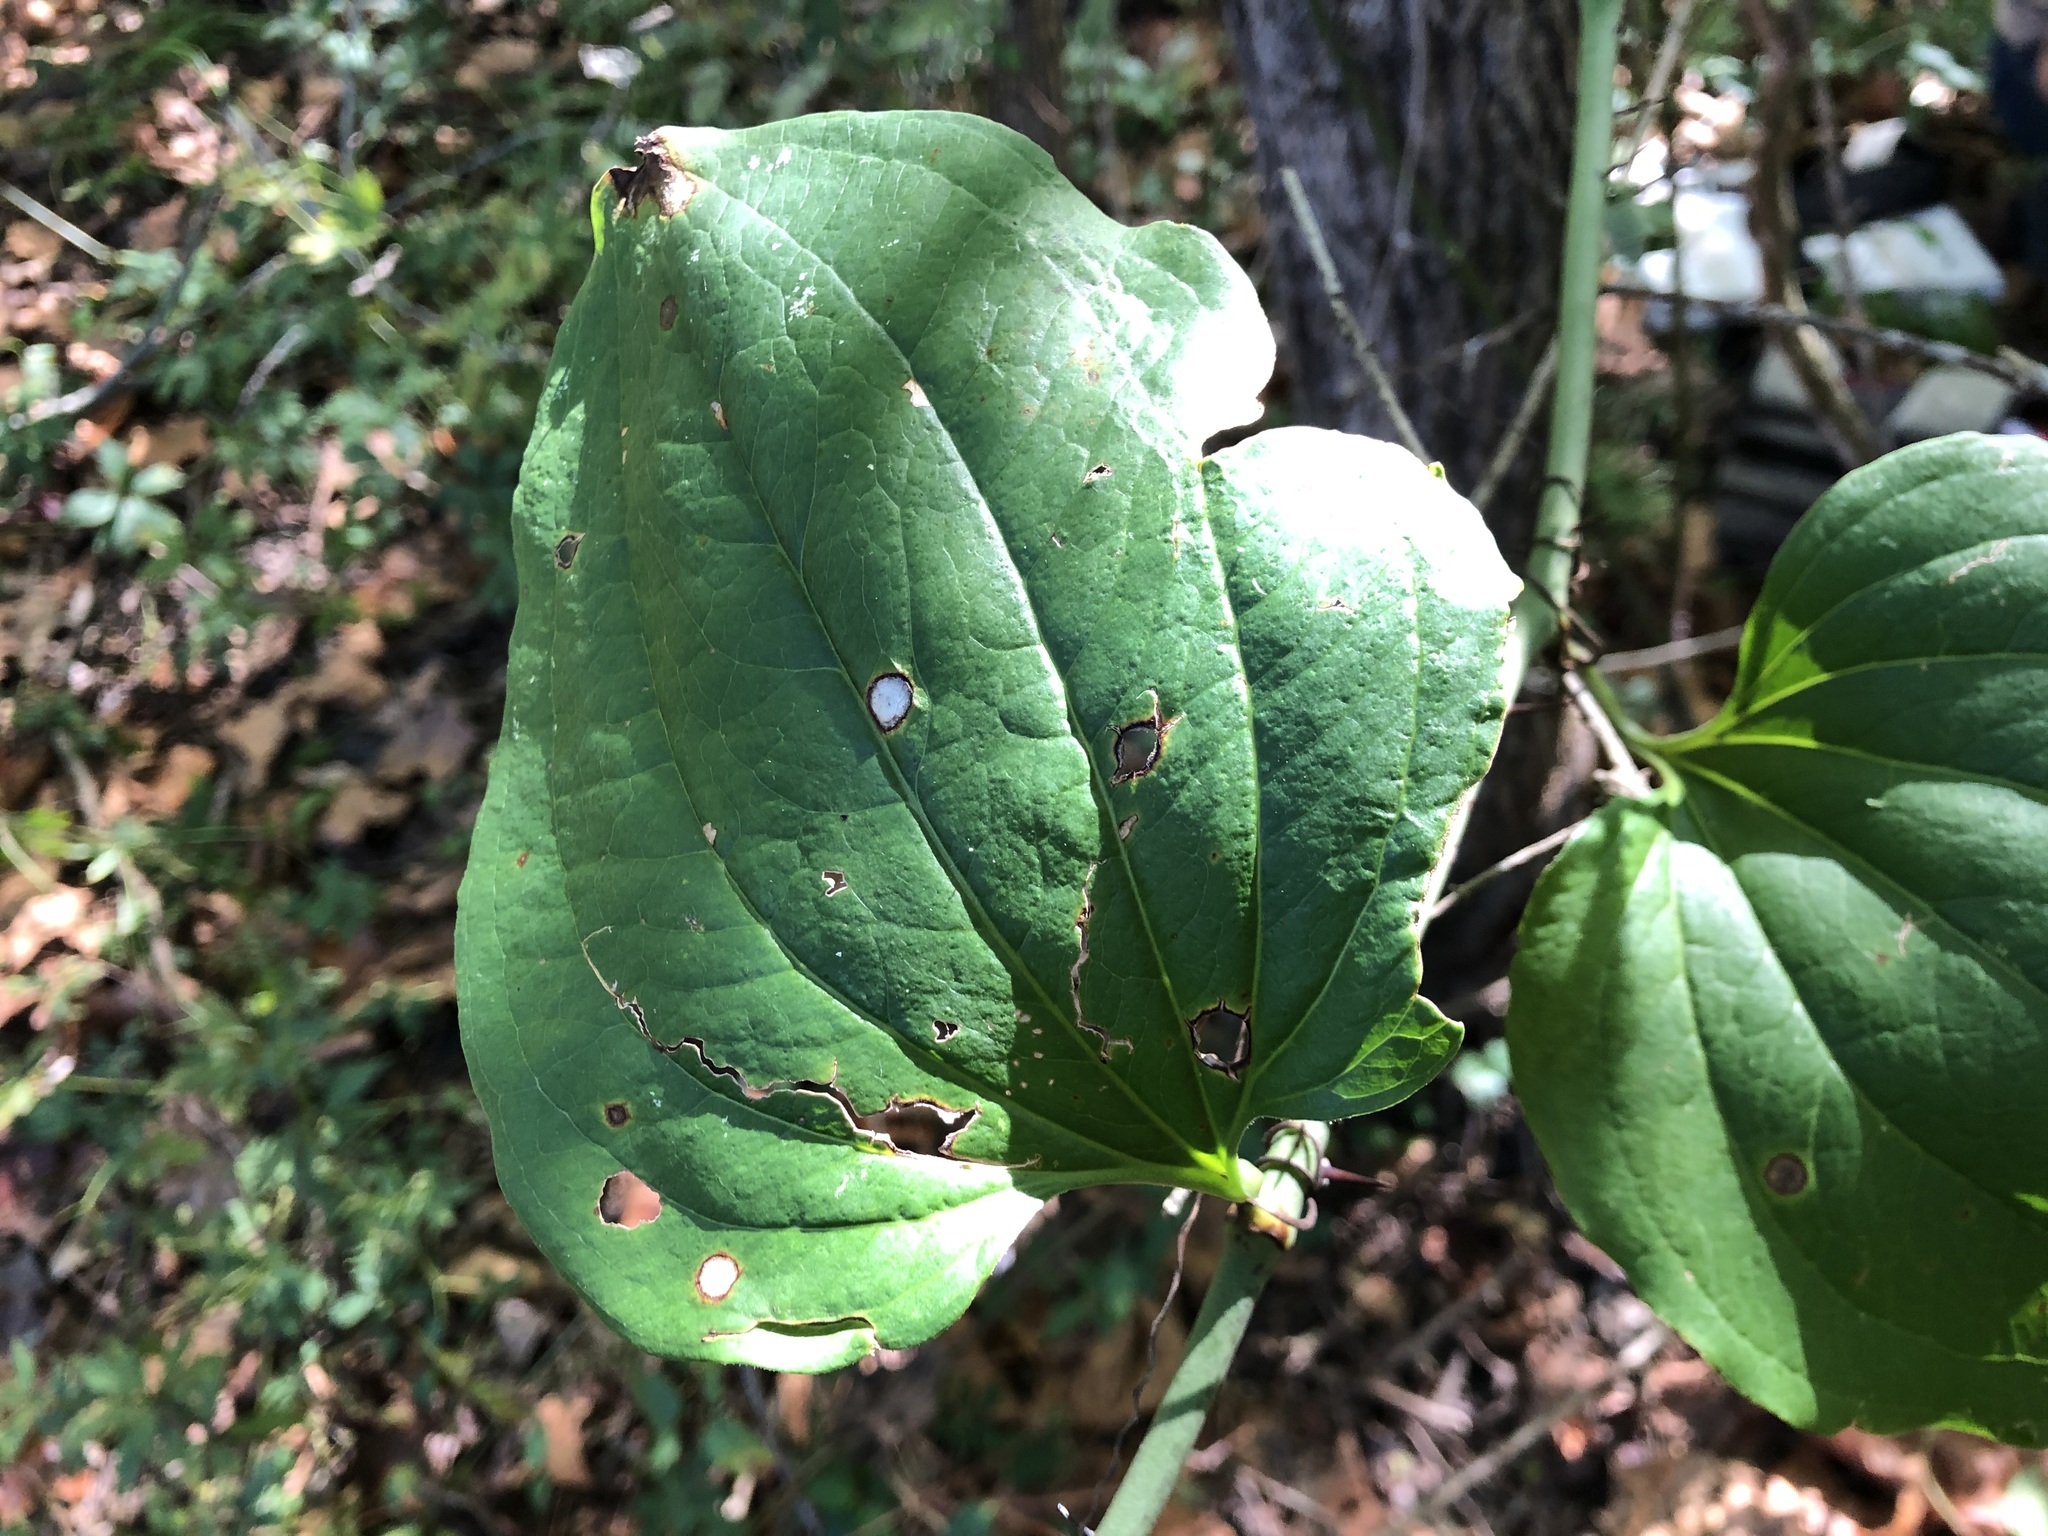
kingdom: Plantae
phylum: Tracheophyta
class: Liliopsida
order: Liliales
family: Smilacaceae
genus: Smilax
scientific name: Smilax tamnoides
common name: Hellfetter
